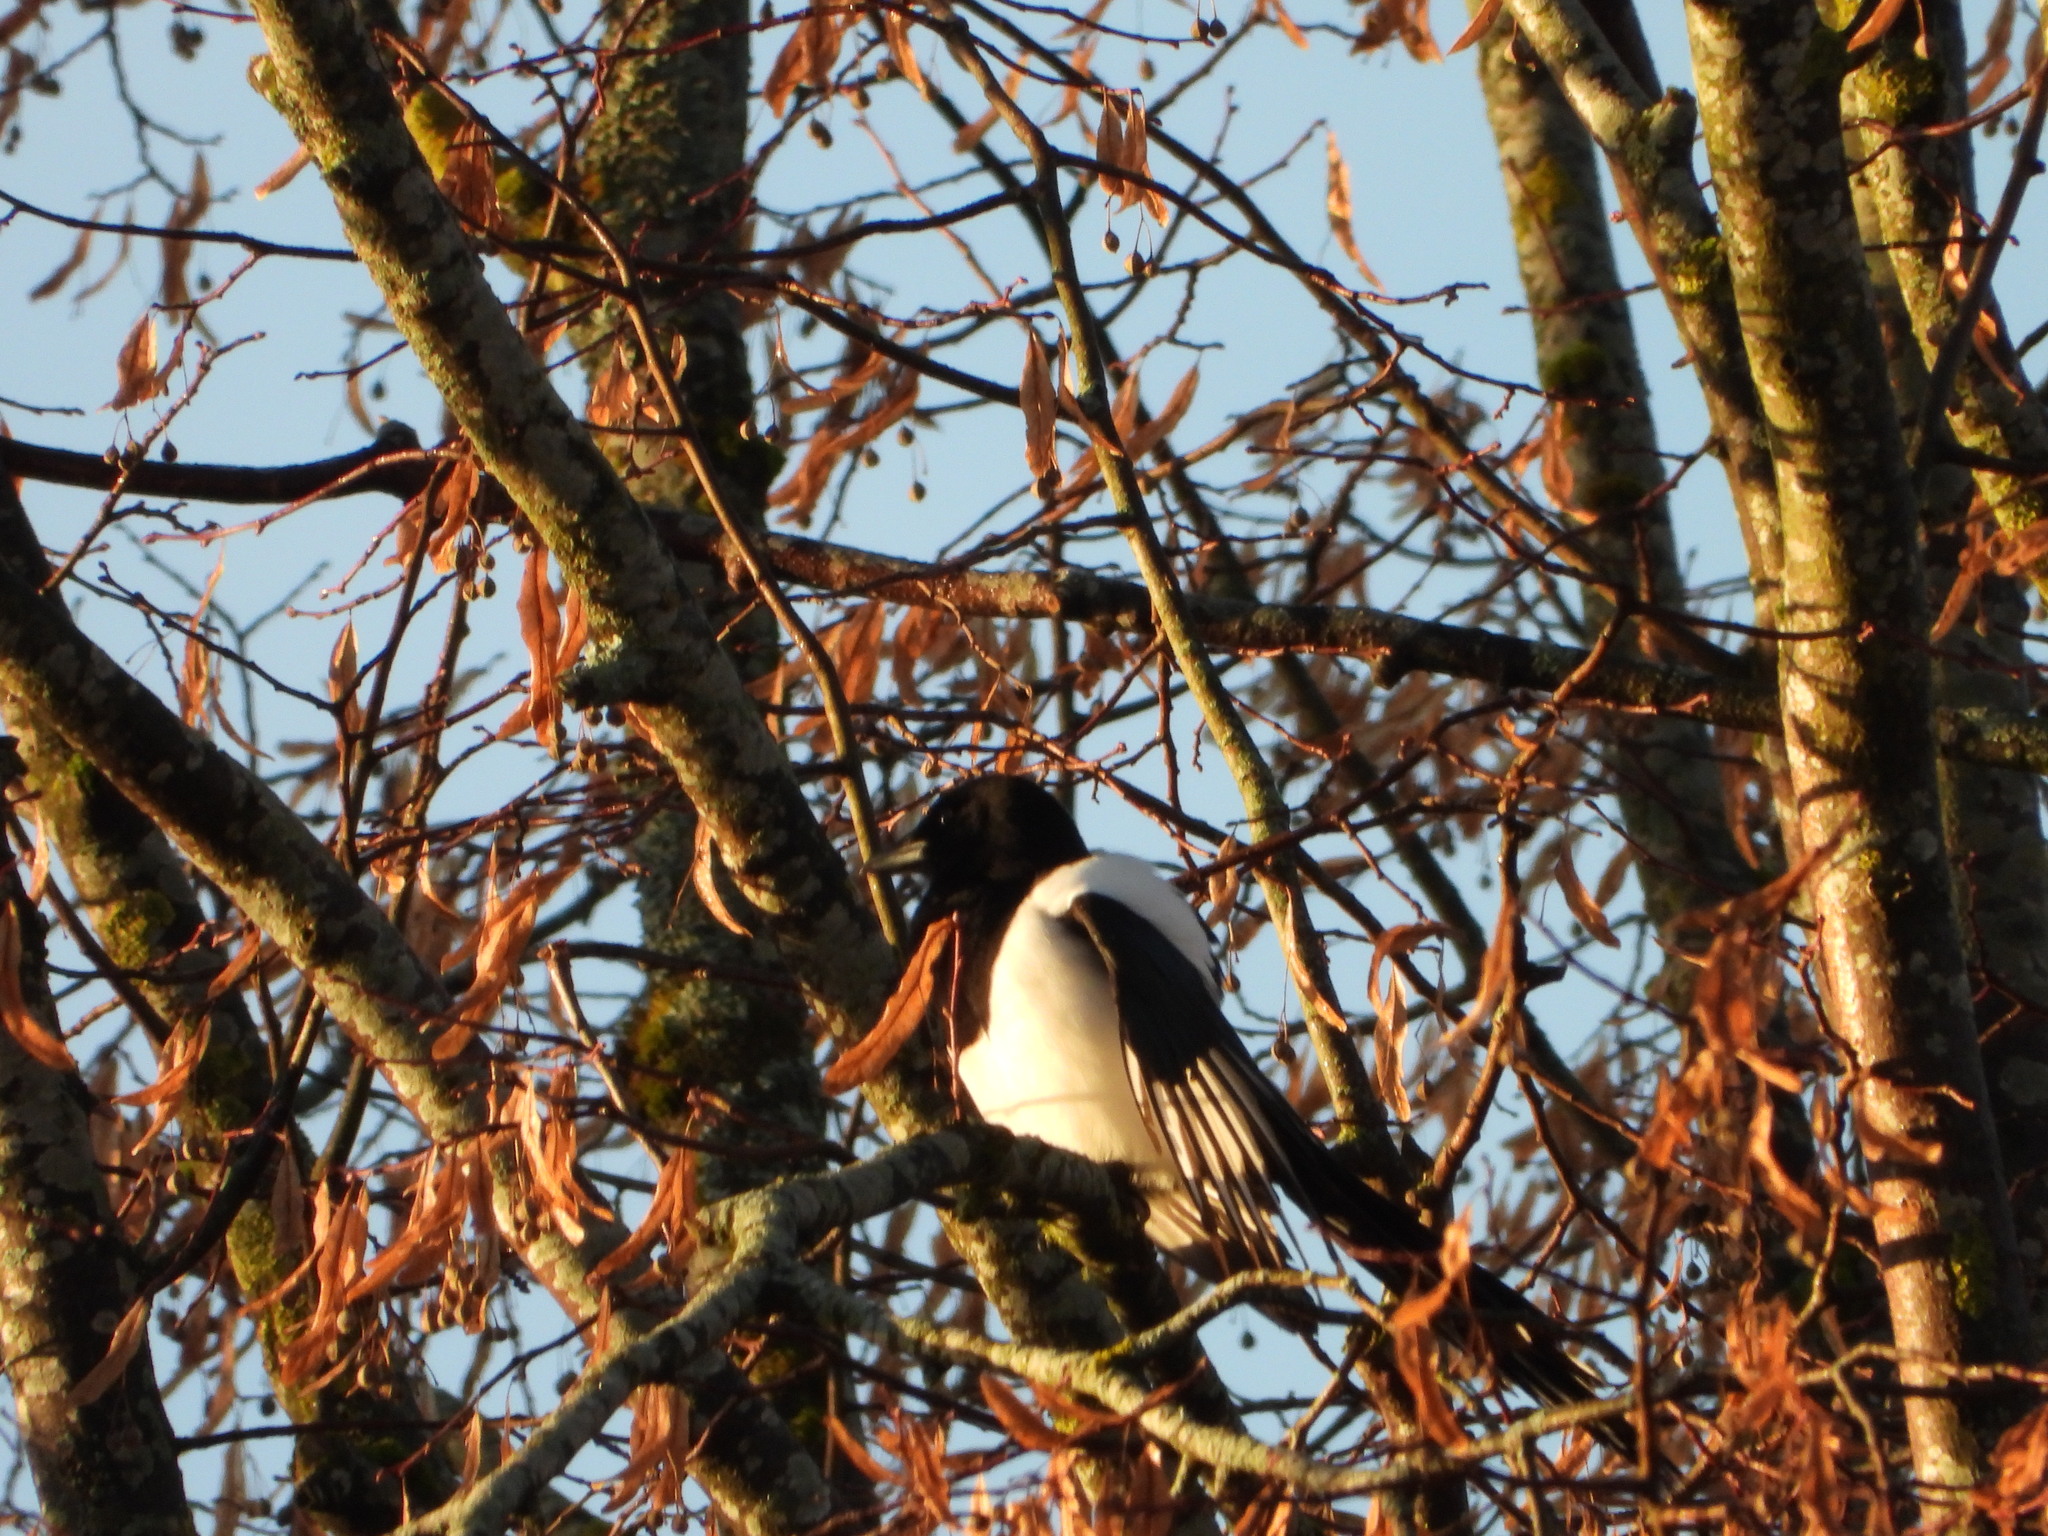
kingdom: Animalia
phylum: Chordata
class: Aves
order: Passeriformes
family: Corvidae
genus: Pica
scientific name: Pica pica
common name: Eurasian magpie
